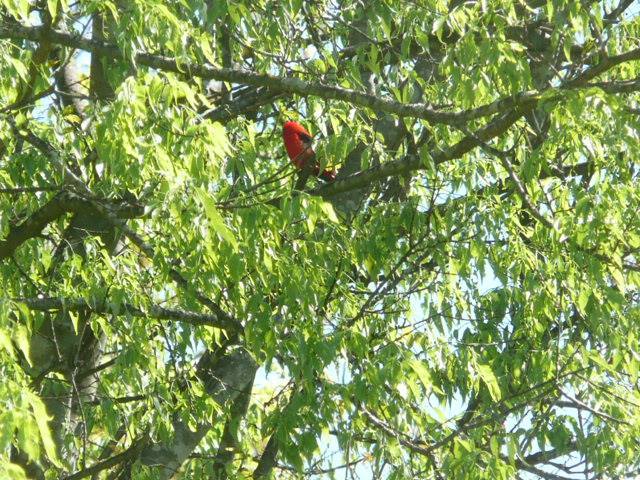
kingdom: Animalia
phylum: Chordata
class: Aves
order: Passeriformes
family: Cardinalidae
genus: Piranga
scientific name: Piranga olivacea
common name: Scarlet tanager
